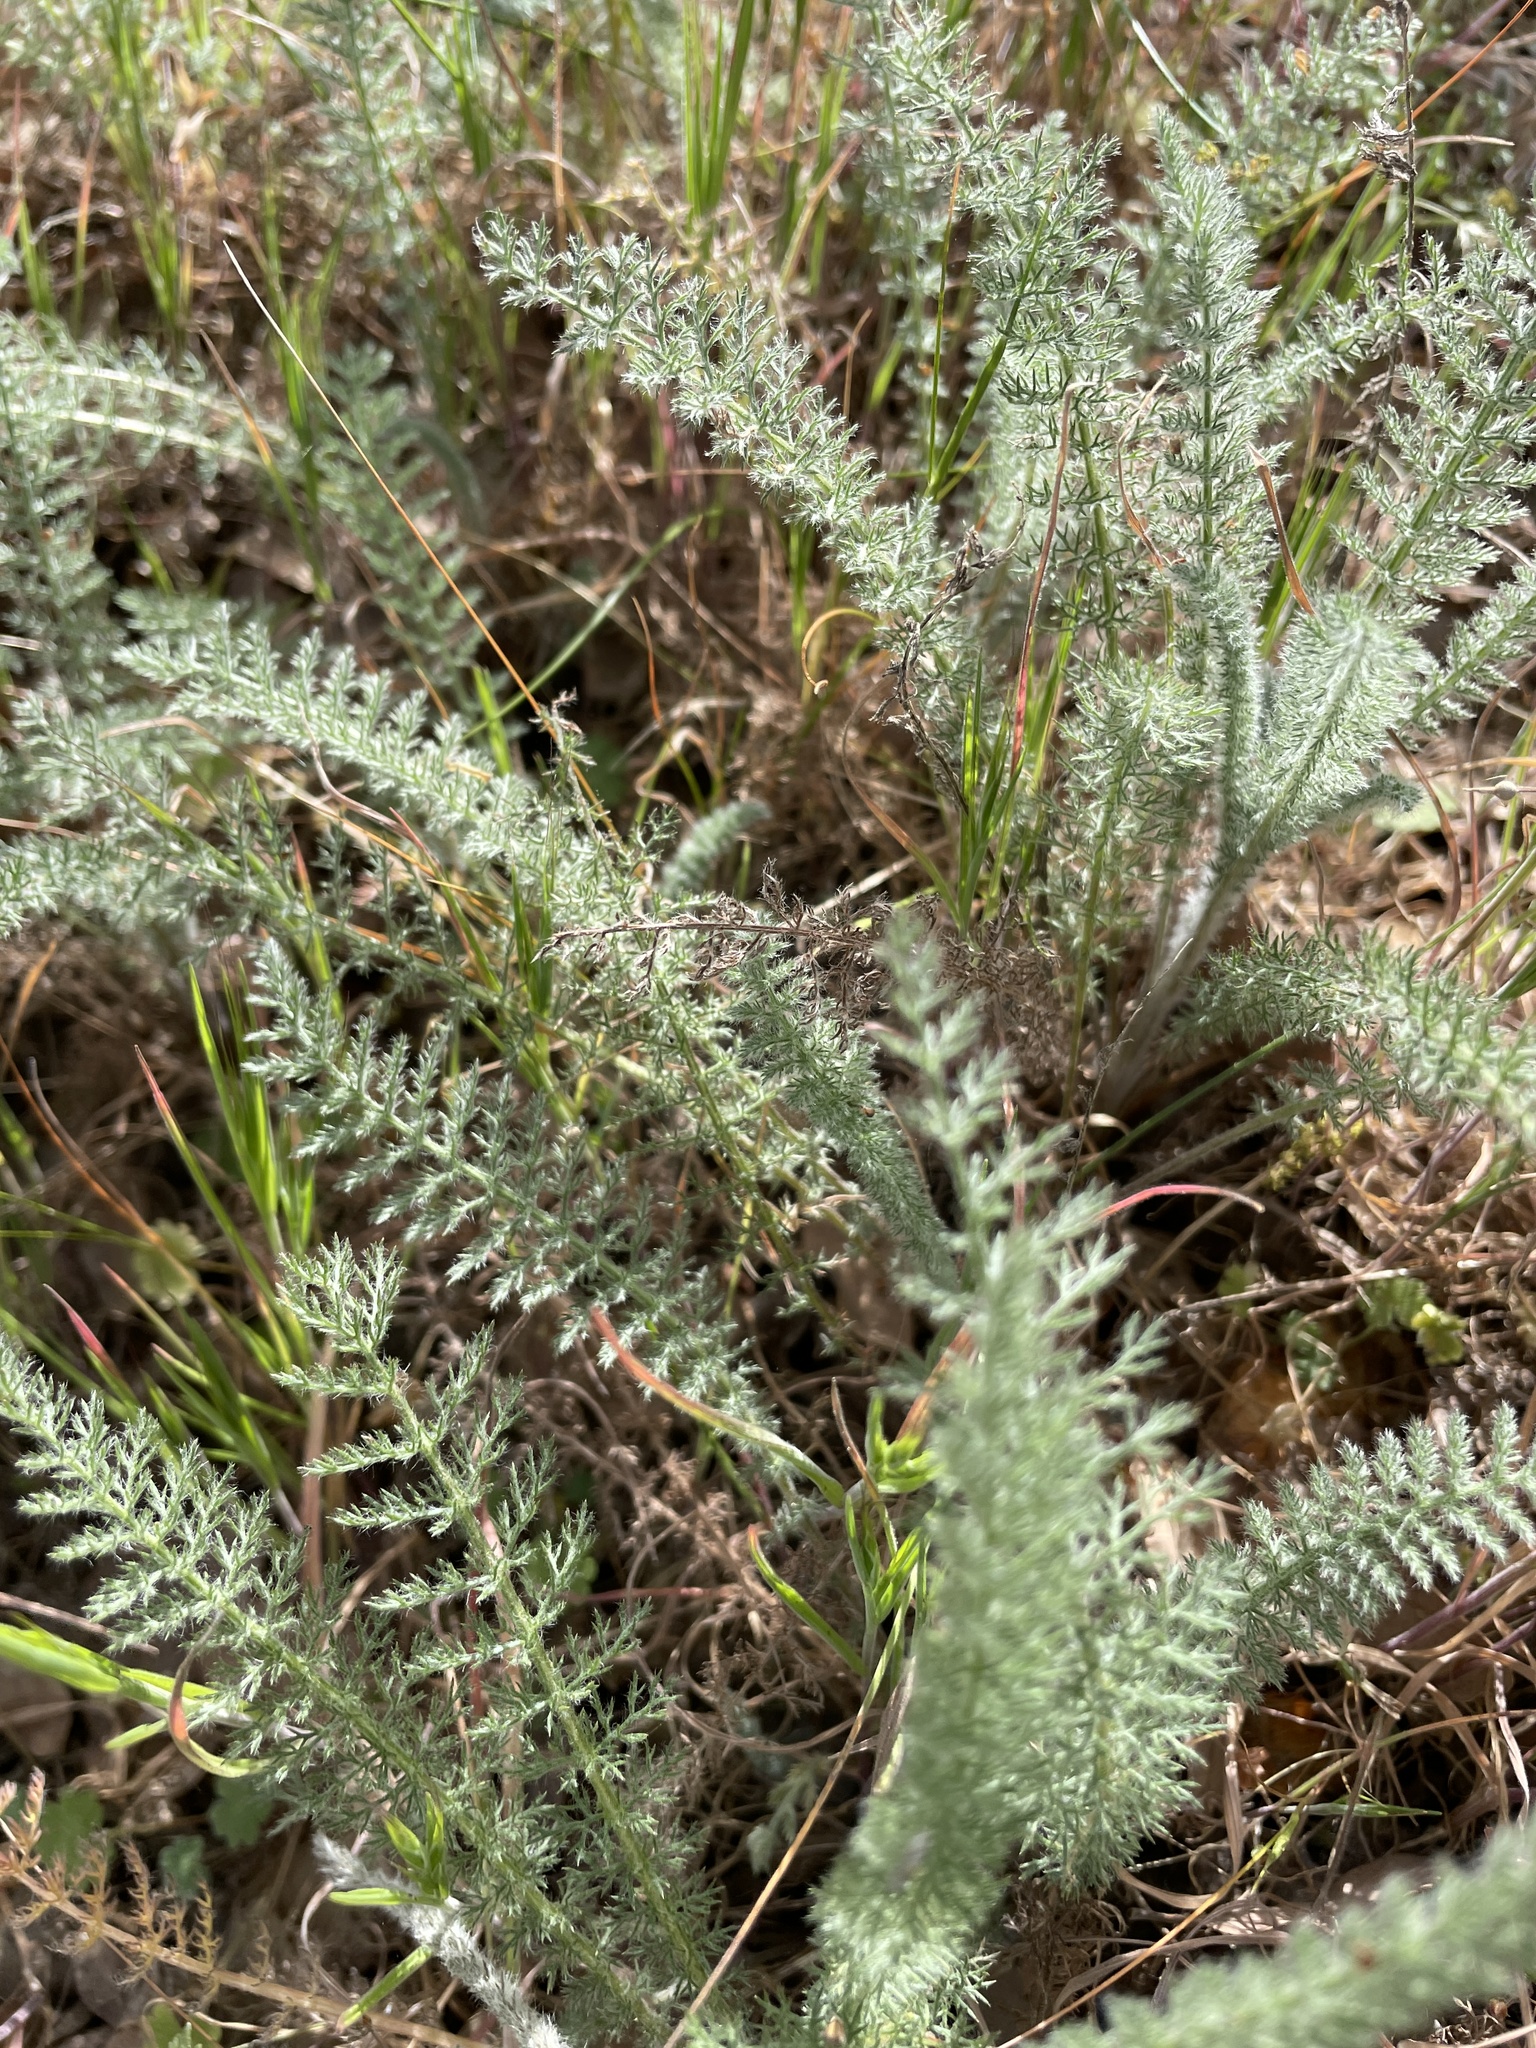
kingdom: Plantae
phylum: Tracheophyta
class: Magnoliopsida
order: Asterales
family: Asteraceae
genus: Achillea
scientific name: Achillea millefolium
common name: Yarrow
